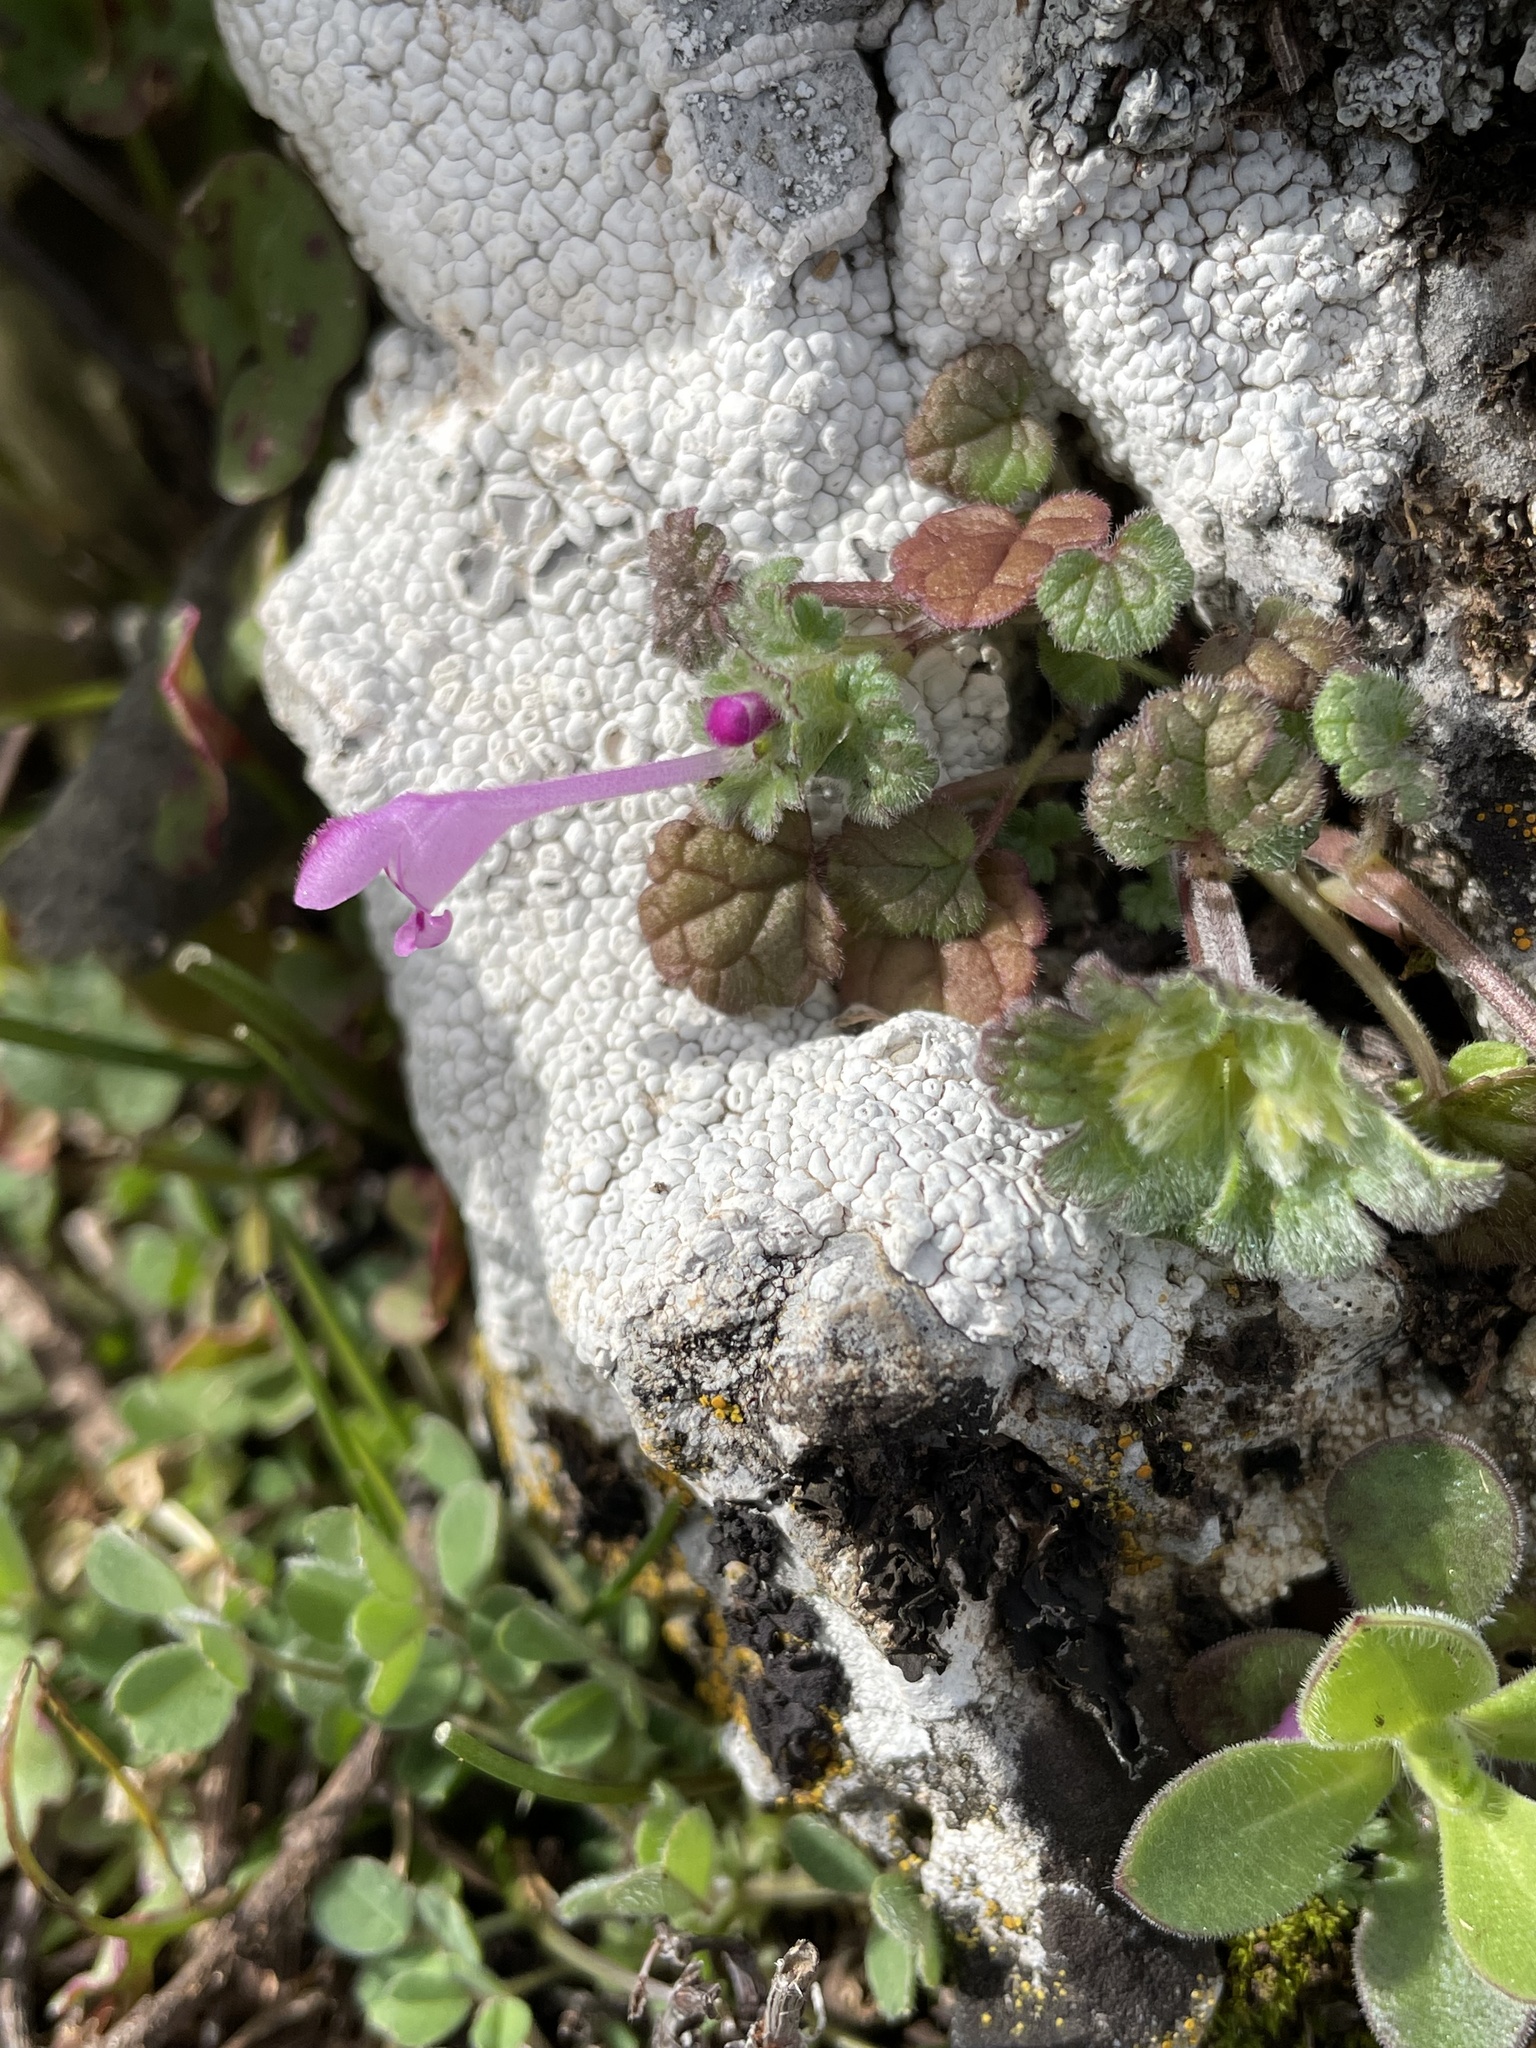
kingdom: Plantae
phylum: Tracheophyta
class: Magnoliopsida
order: Lamiales
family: Lamiaceae
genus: Lamium
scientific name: Lamium amplexicaule
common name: Henbit dead-nettle
